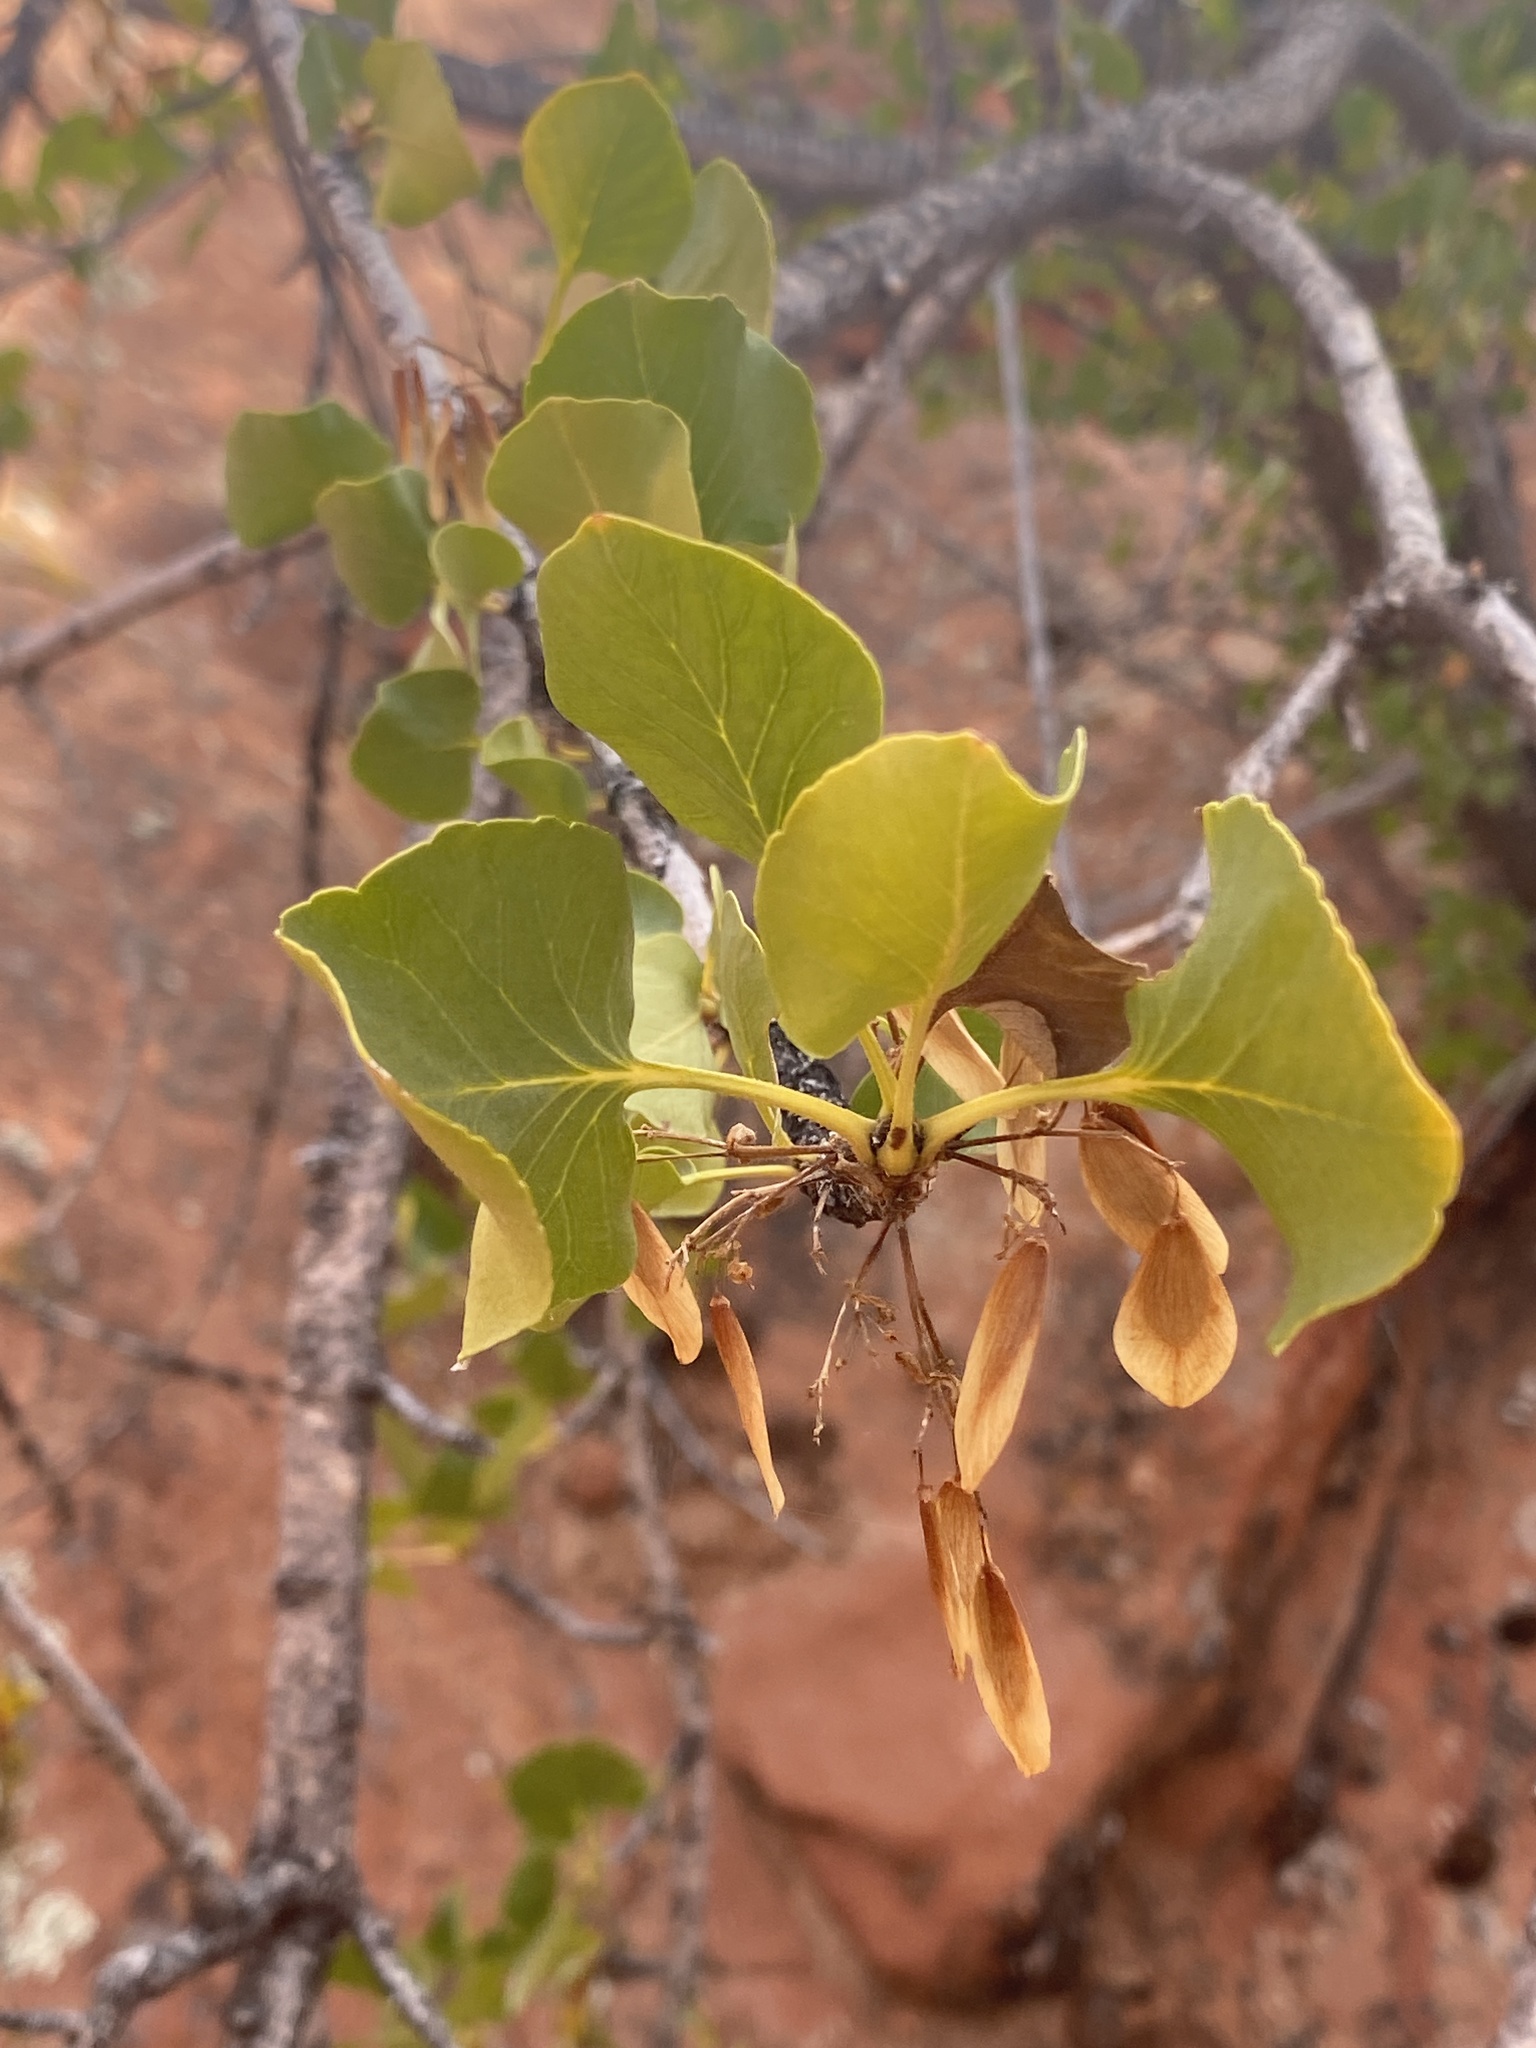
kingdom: Plantae
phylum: Tracheophyta
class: Magnoliopsida
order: Lamiales
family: Oleaceae
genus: Fraxinus
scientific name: Fraxinus anomala
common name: Utah ash
